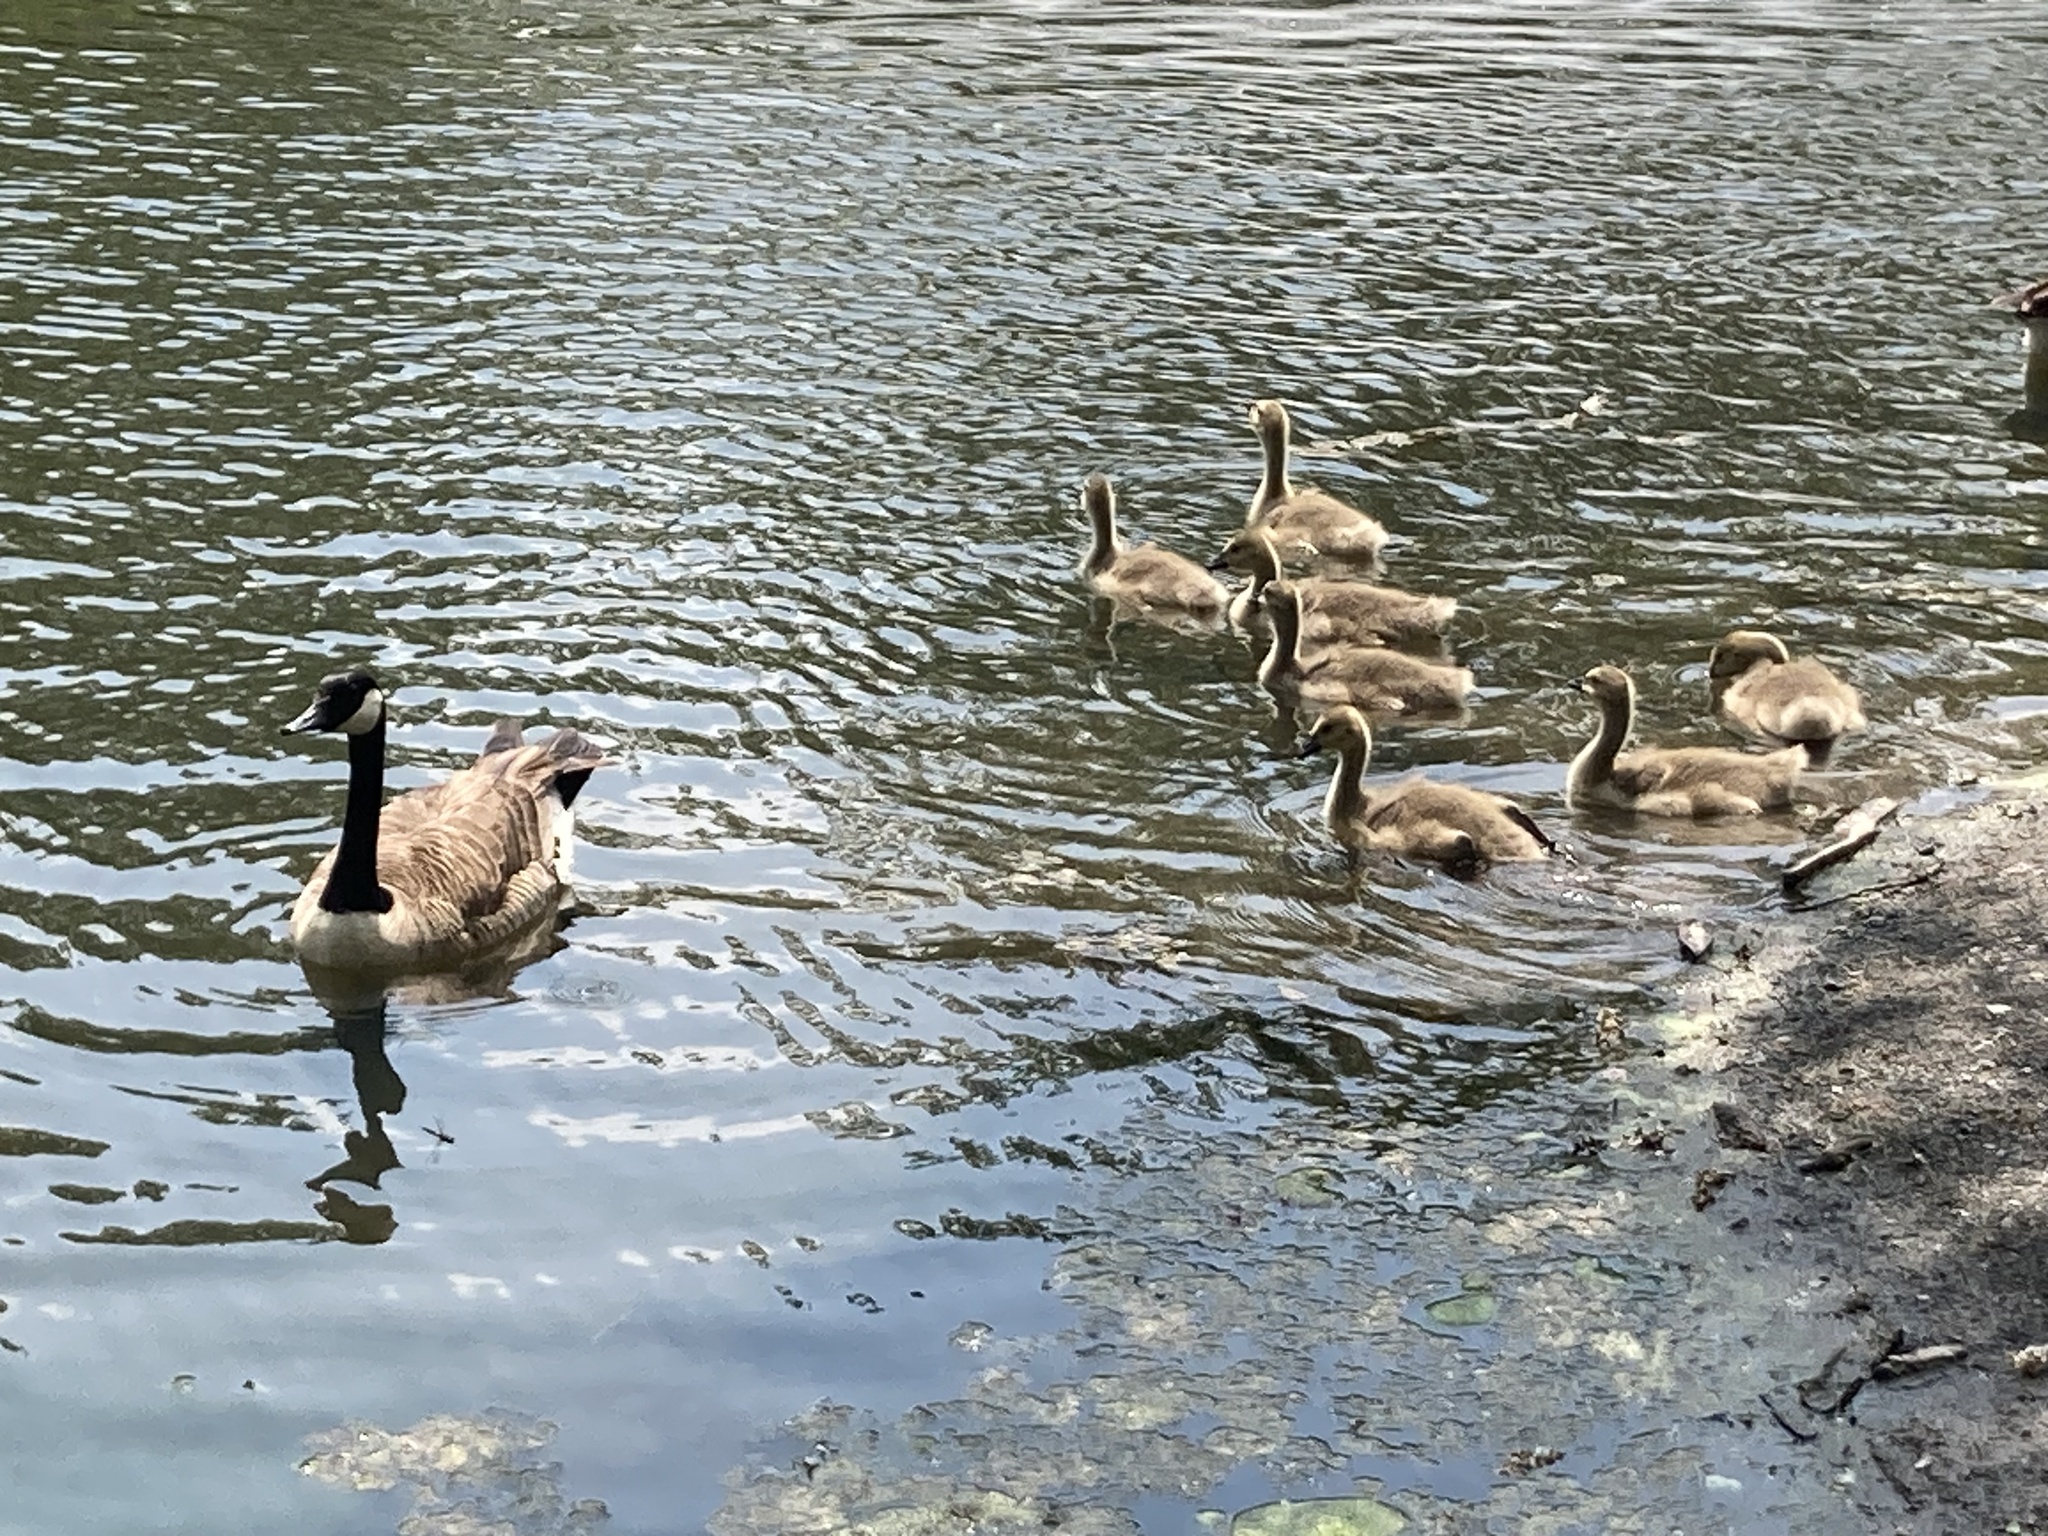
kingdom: Animalia
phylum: Chordata
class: Aves
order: Anseriformes
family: Anatidae
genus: Branta
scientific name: Branta canadensis
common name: Canada goose
